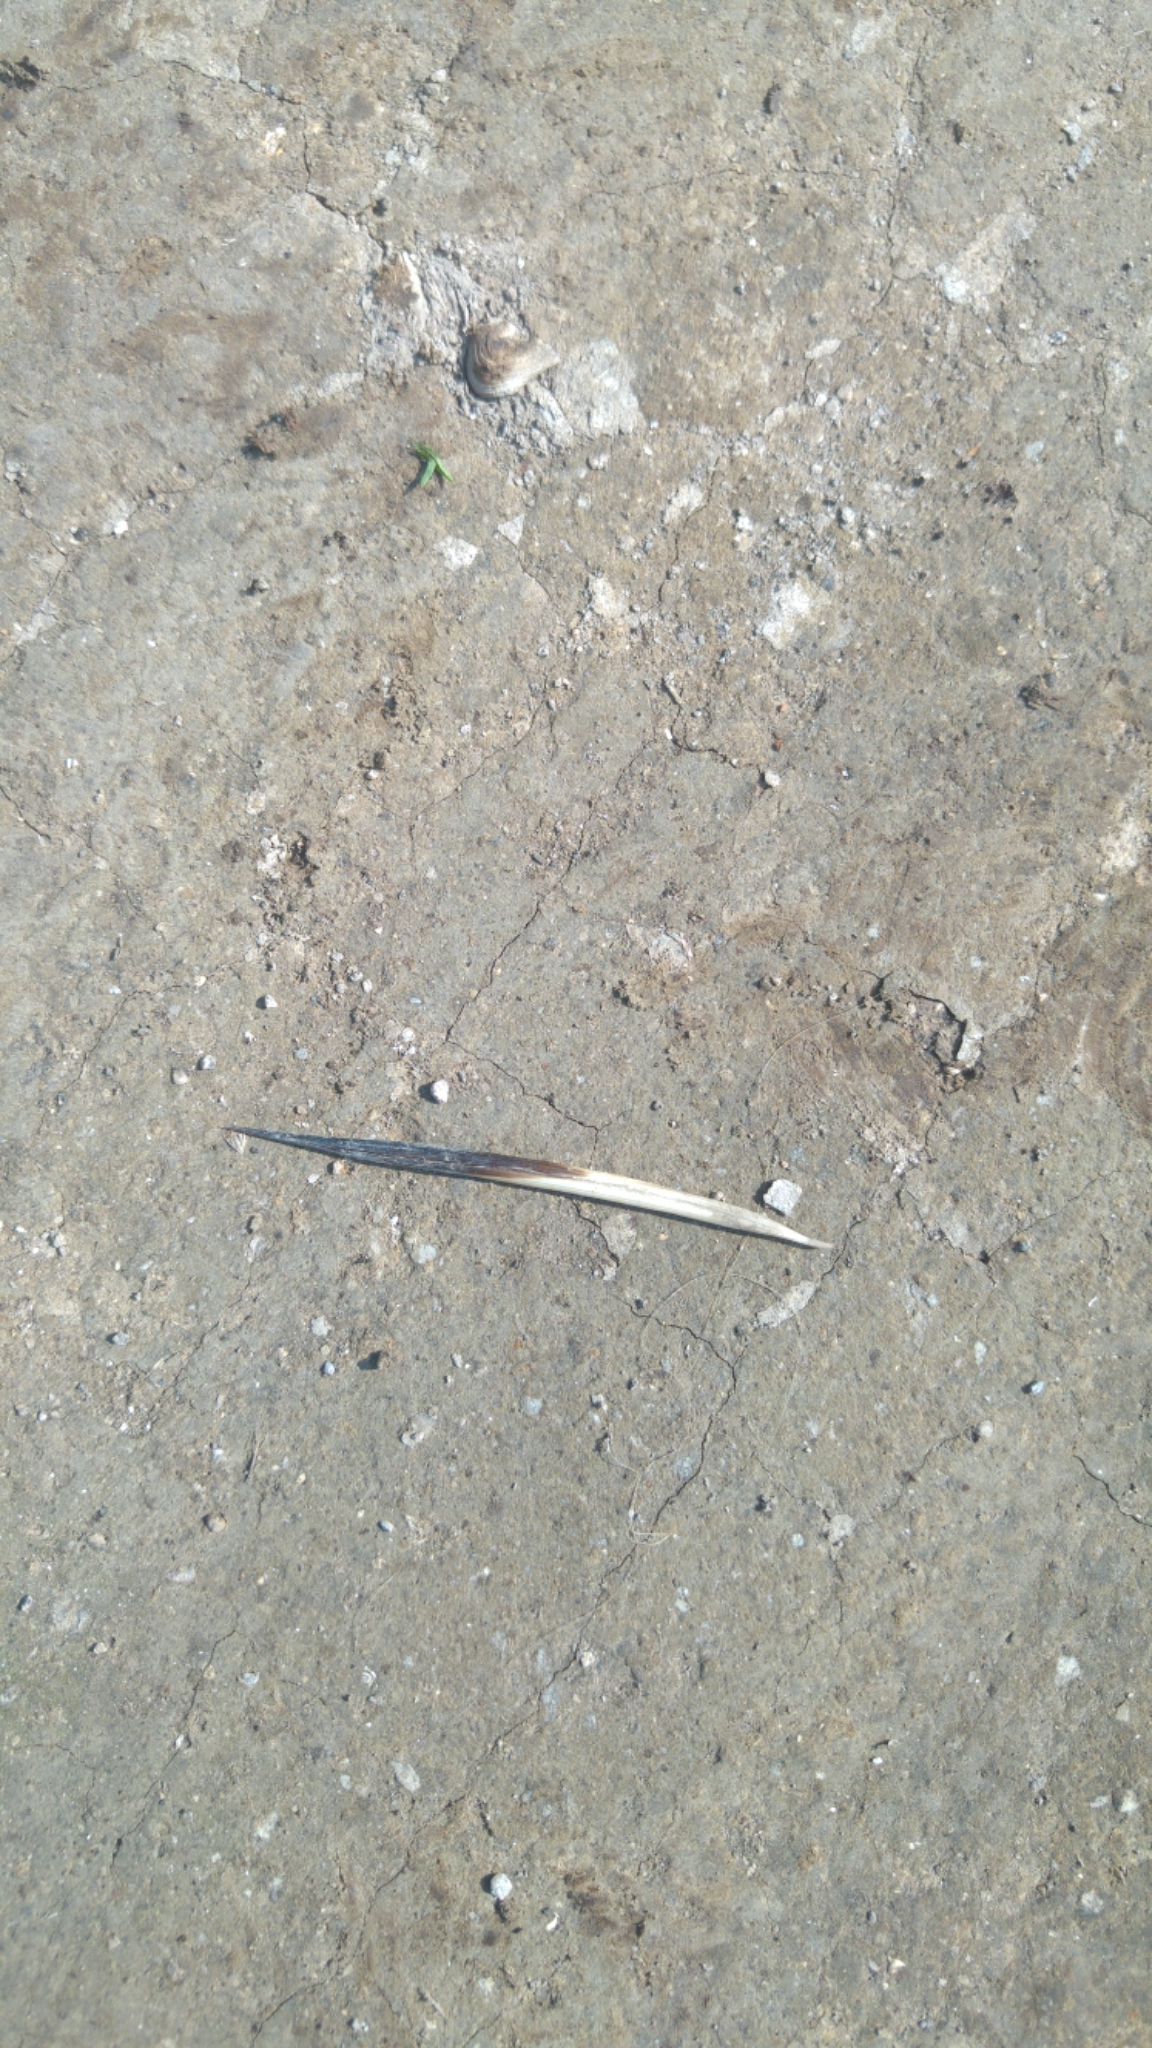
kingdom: Animalia
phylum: Chordata
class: Mammalia
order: Rodentia
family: Hystricidae
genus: Hystrix
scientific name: Hystrix indica
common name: Indian crested porcupine
